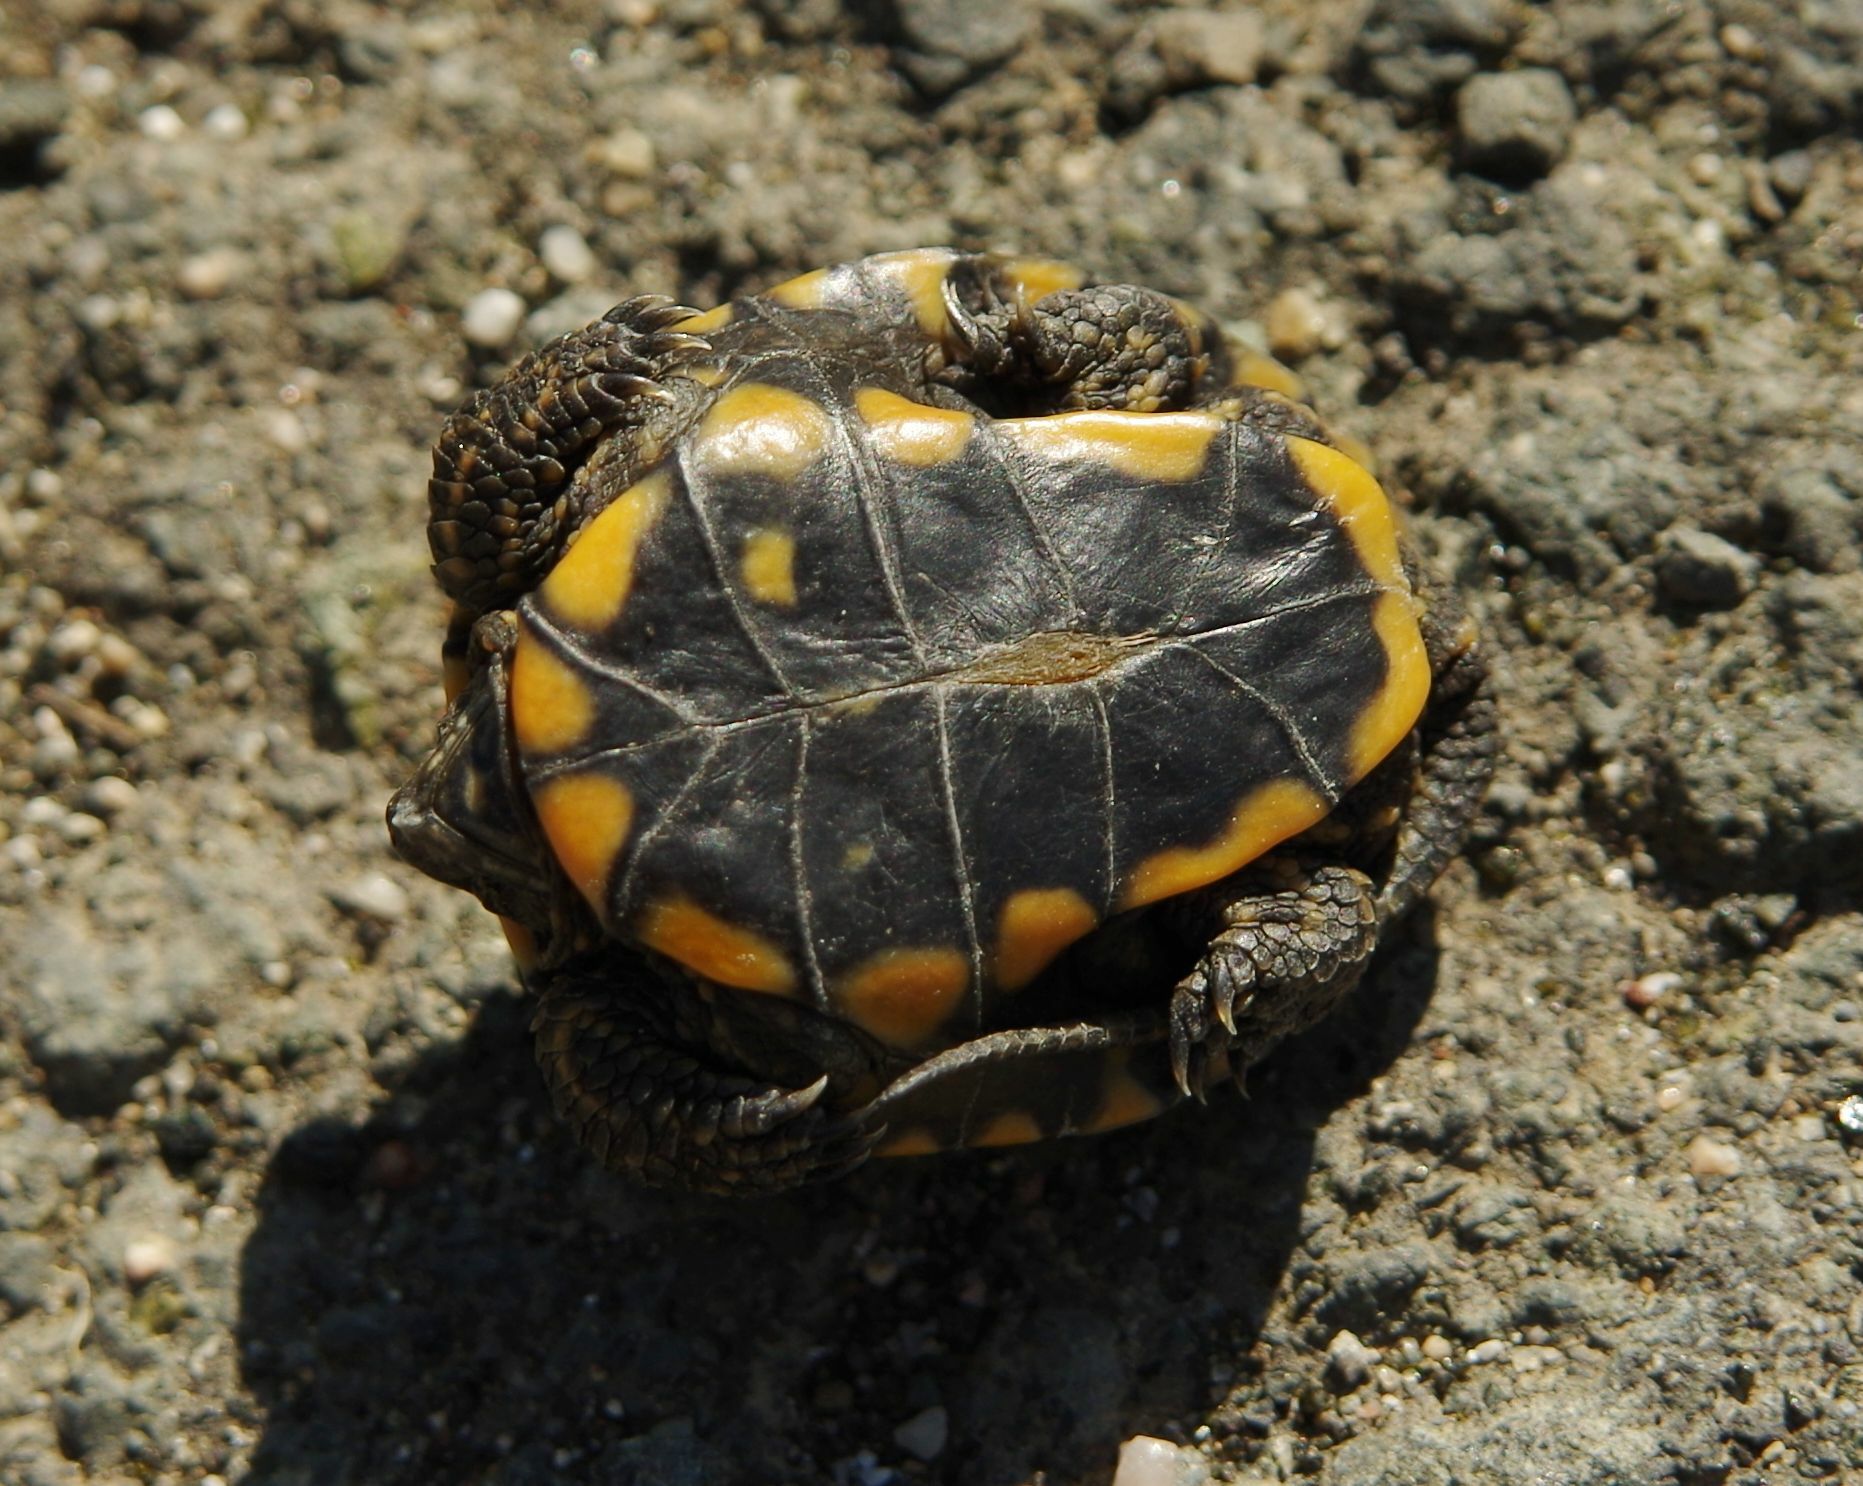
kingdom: Animalia
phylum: Chordata
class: Testudines
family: Emydidae
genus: Emys
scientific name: Emys orbicularis
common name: European pond turtle
